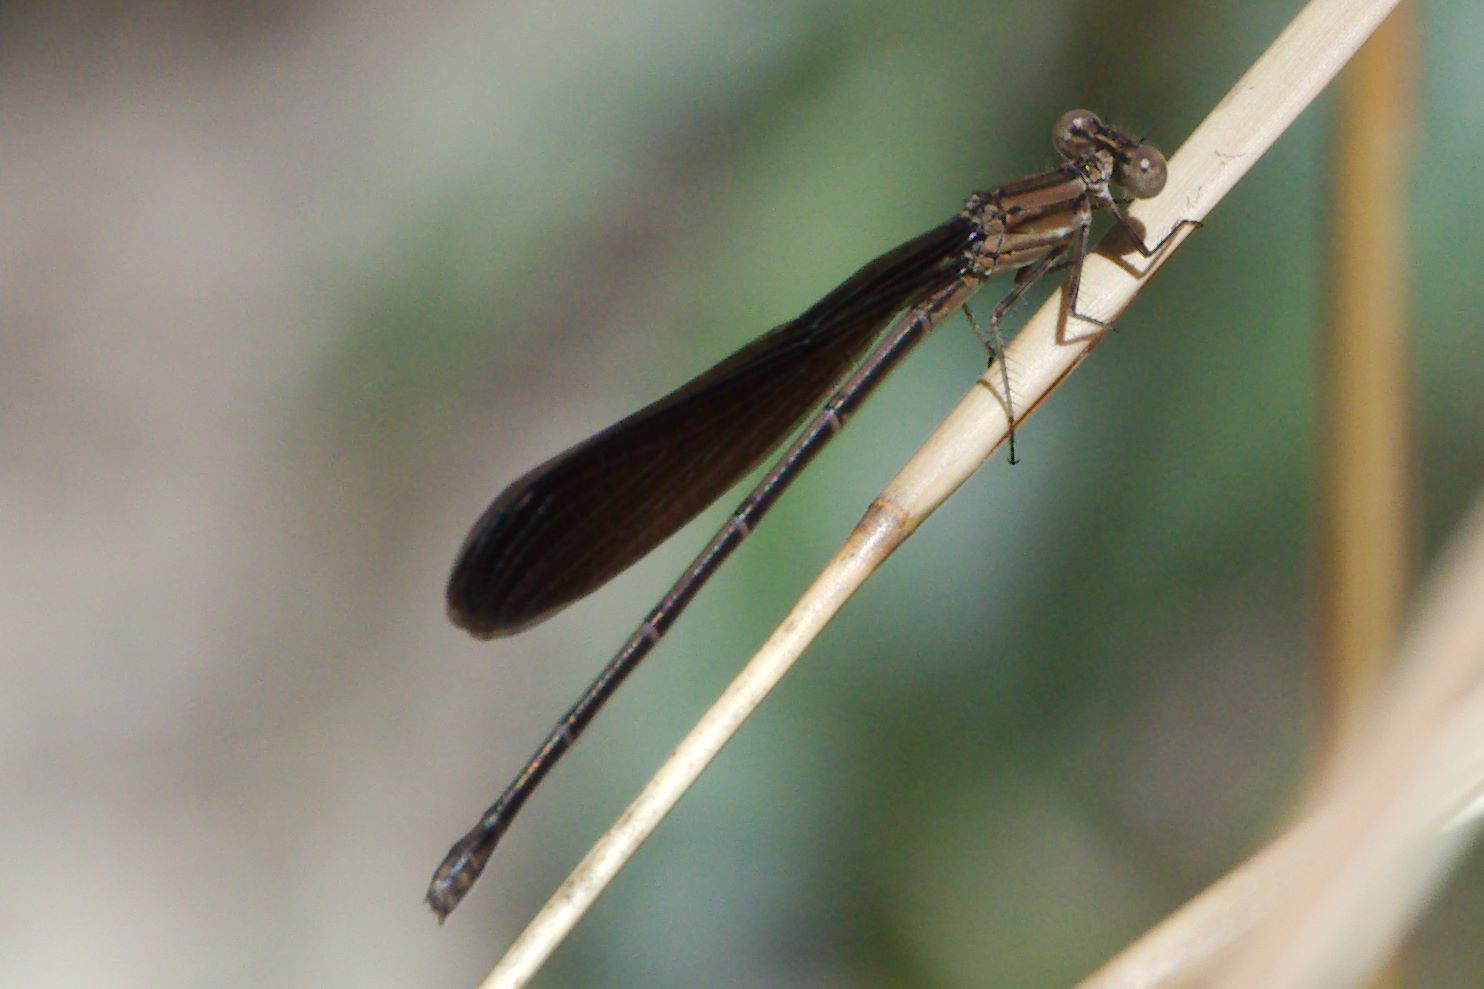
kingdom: Animalia
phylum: Arthropoda
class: Insecta
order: Odonata
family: Coenagrionidae
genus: Argia
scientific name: Argia fumipennis
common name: Variable dancer
